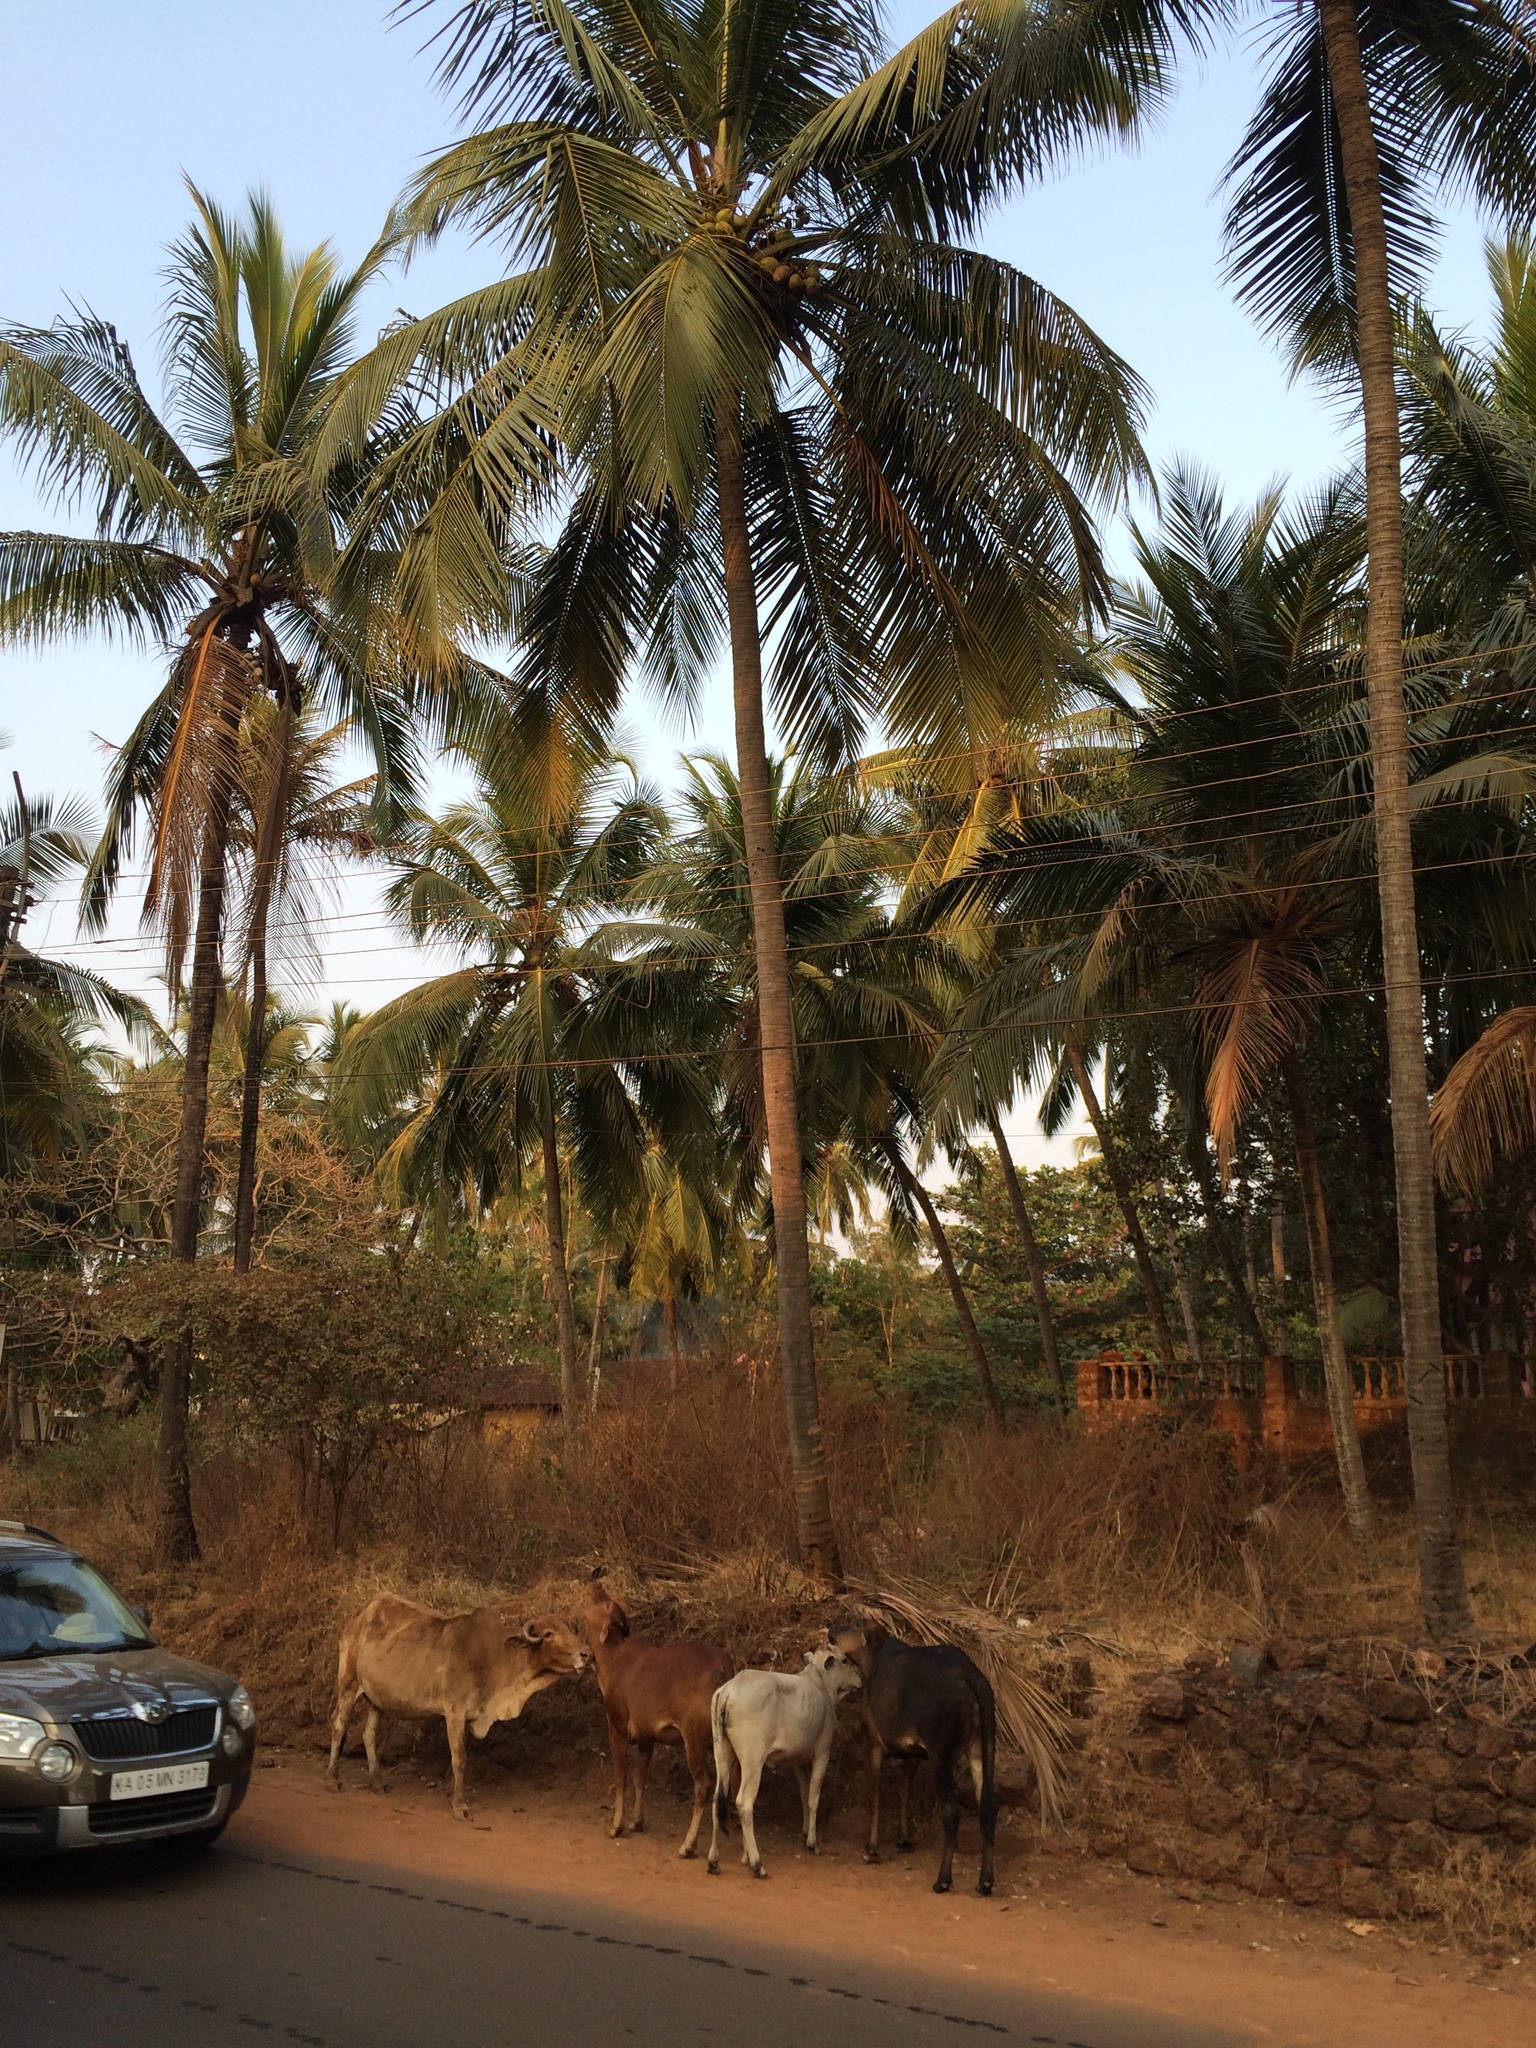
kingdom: Animalia
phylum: Chordata
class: Mammalia
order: Artiodactyla
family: Bovidae
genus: Bos
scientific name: Bos taurus
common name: Domesticated cattle
